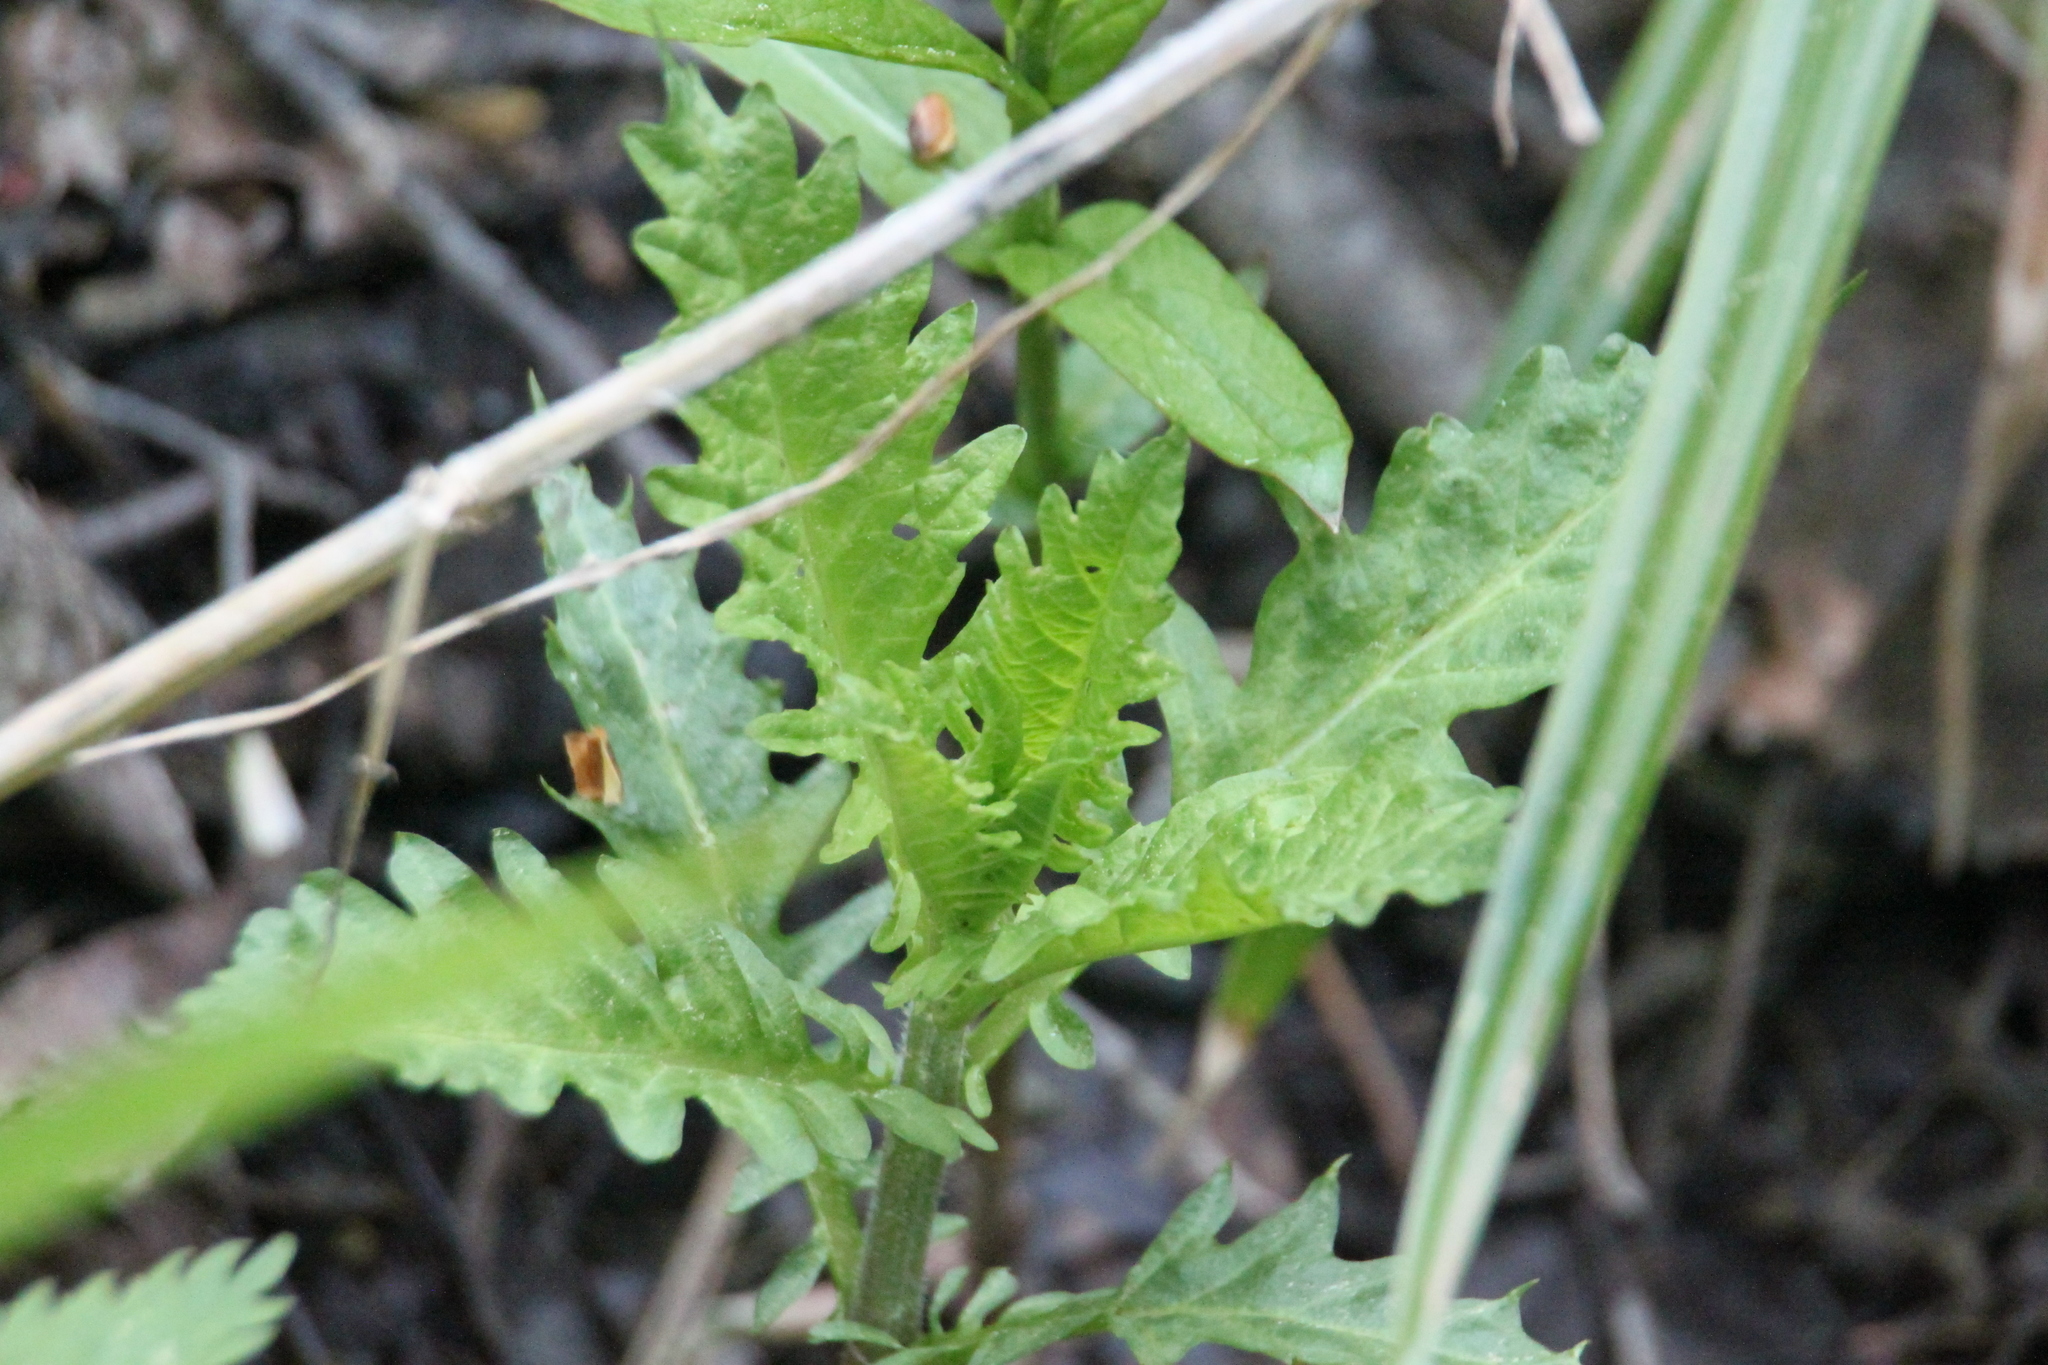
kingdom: Plantae
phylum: Tracheophyta
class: Magnoliopsida
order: Lamiales
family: Lamiaceae
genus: Lycopus
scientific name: Lycopus europaeus
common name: European bugleweed
